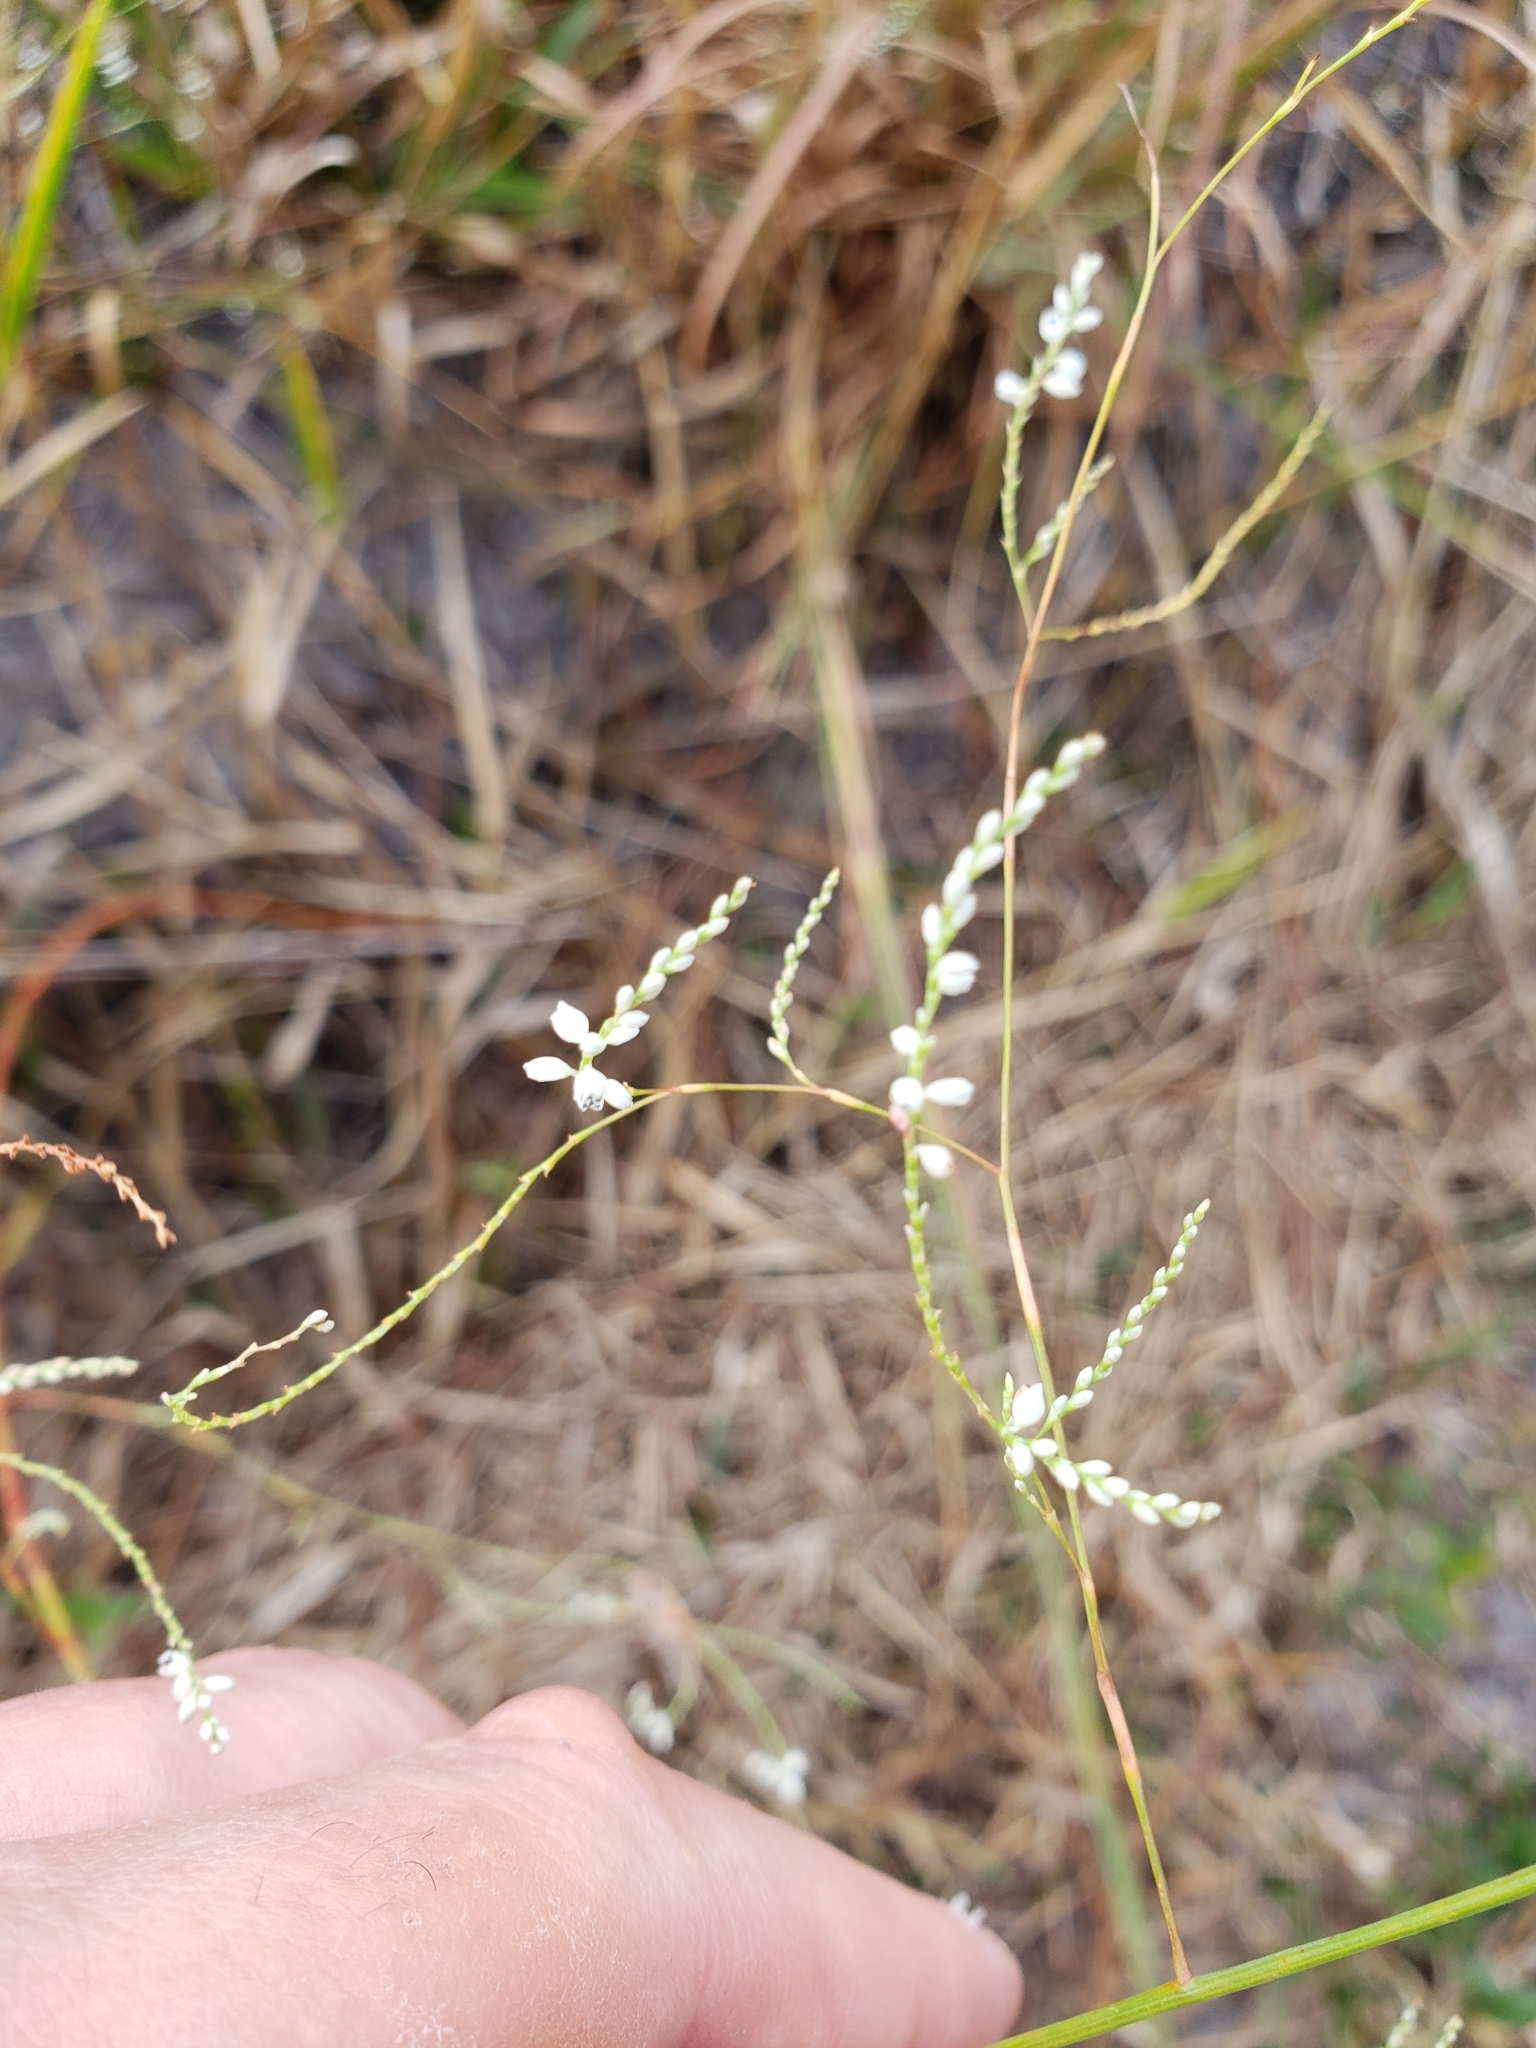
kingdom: Plantae
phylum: Tracheophyta
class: Magnoliopsida
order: Caryophyllales
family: Polygonaceae
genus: Polygonella
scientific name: Polygonella gracilis
